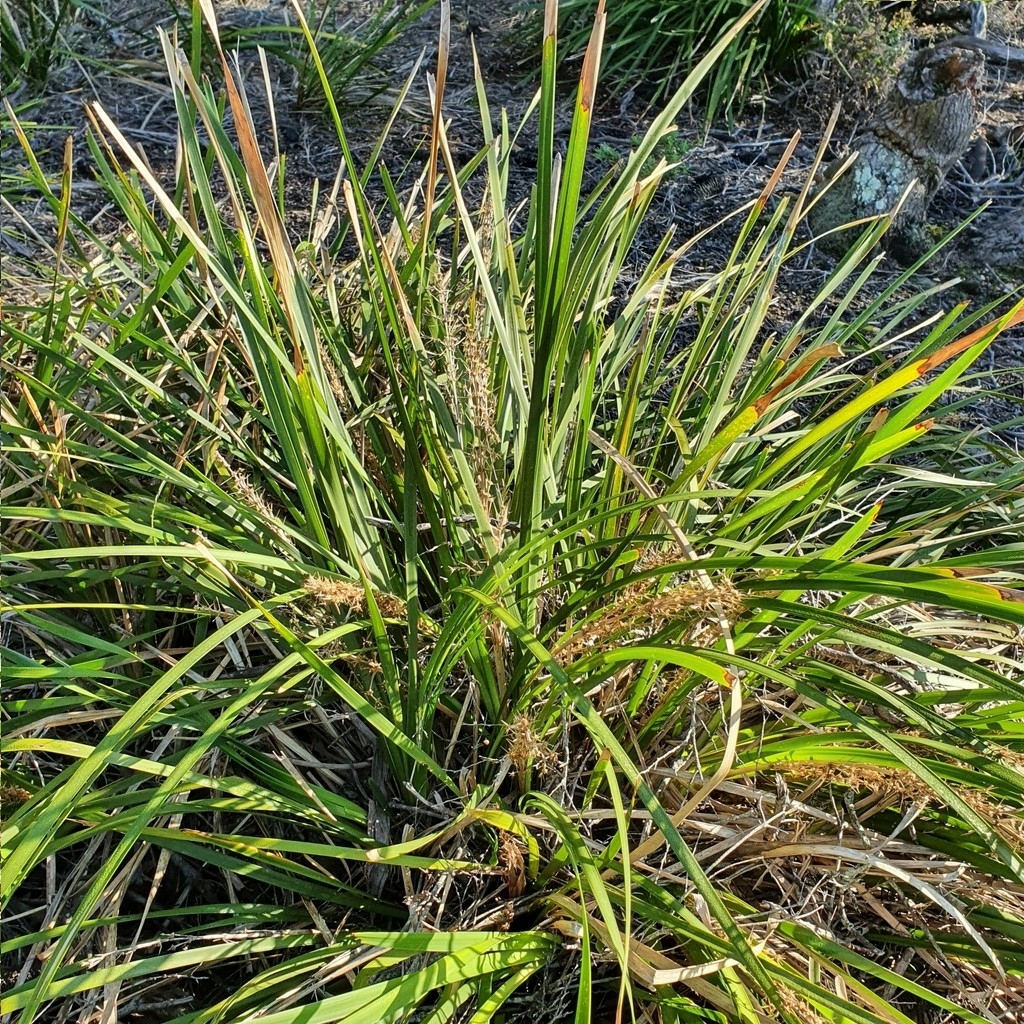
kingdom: Plantae
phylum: Tracheophyta
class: Liliopsida
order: Asparagales
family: Asparagaceae
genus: Lomandra
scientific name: Lomandra longifolia
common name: Longleaf mat-rush
